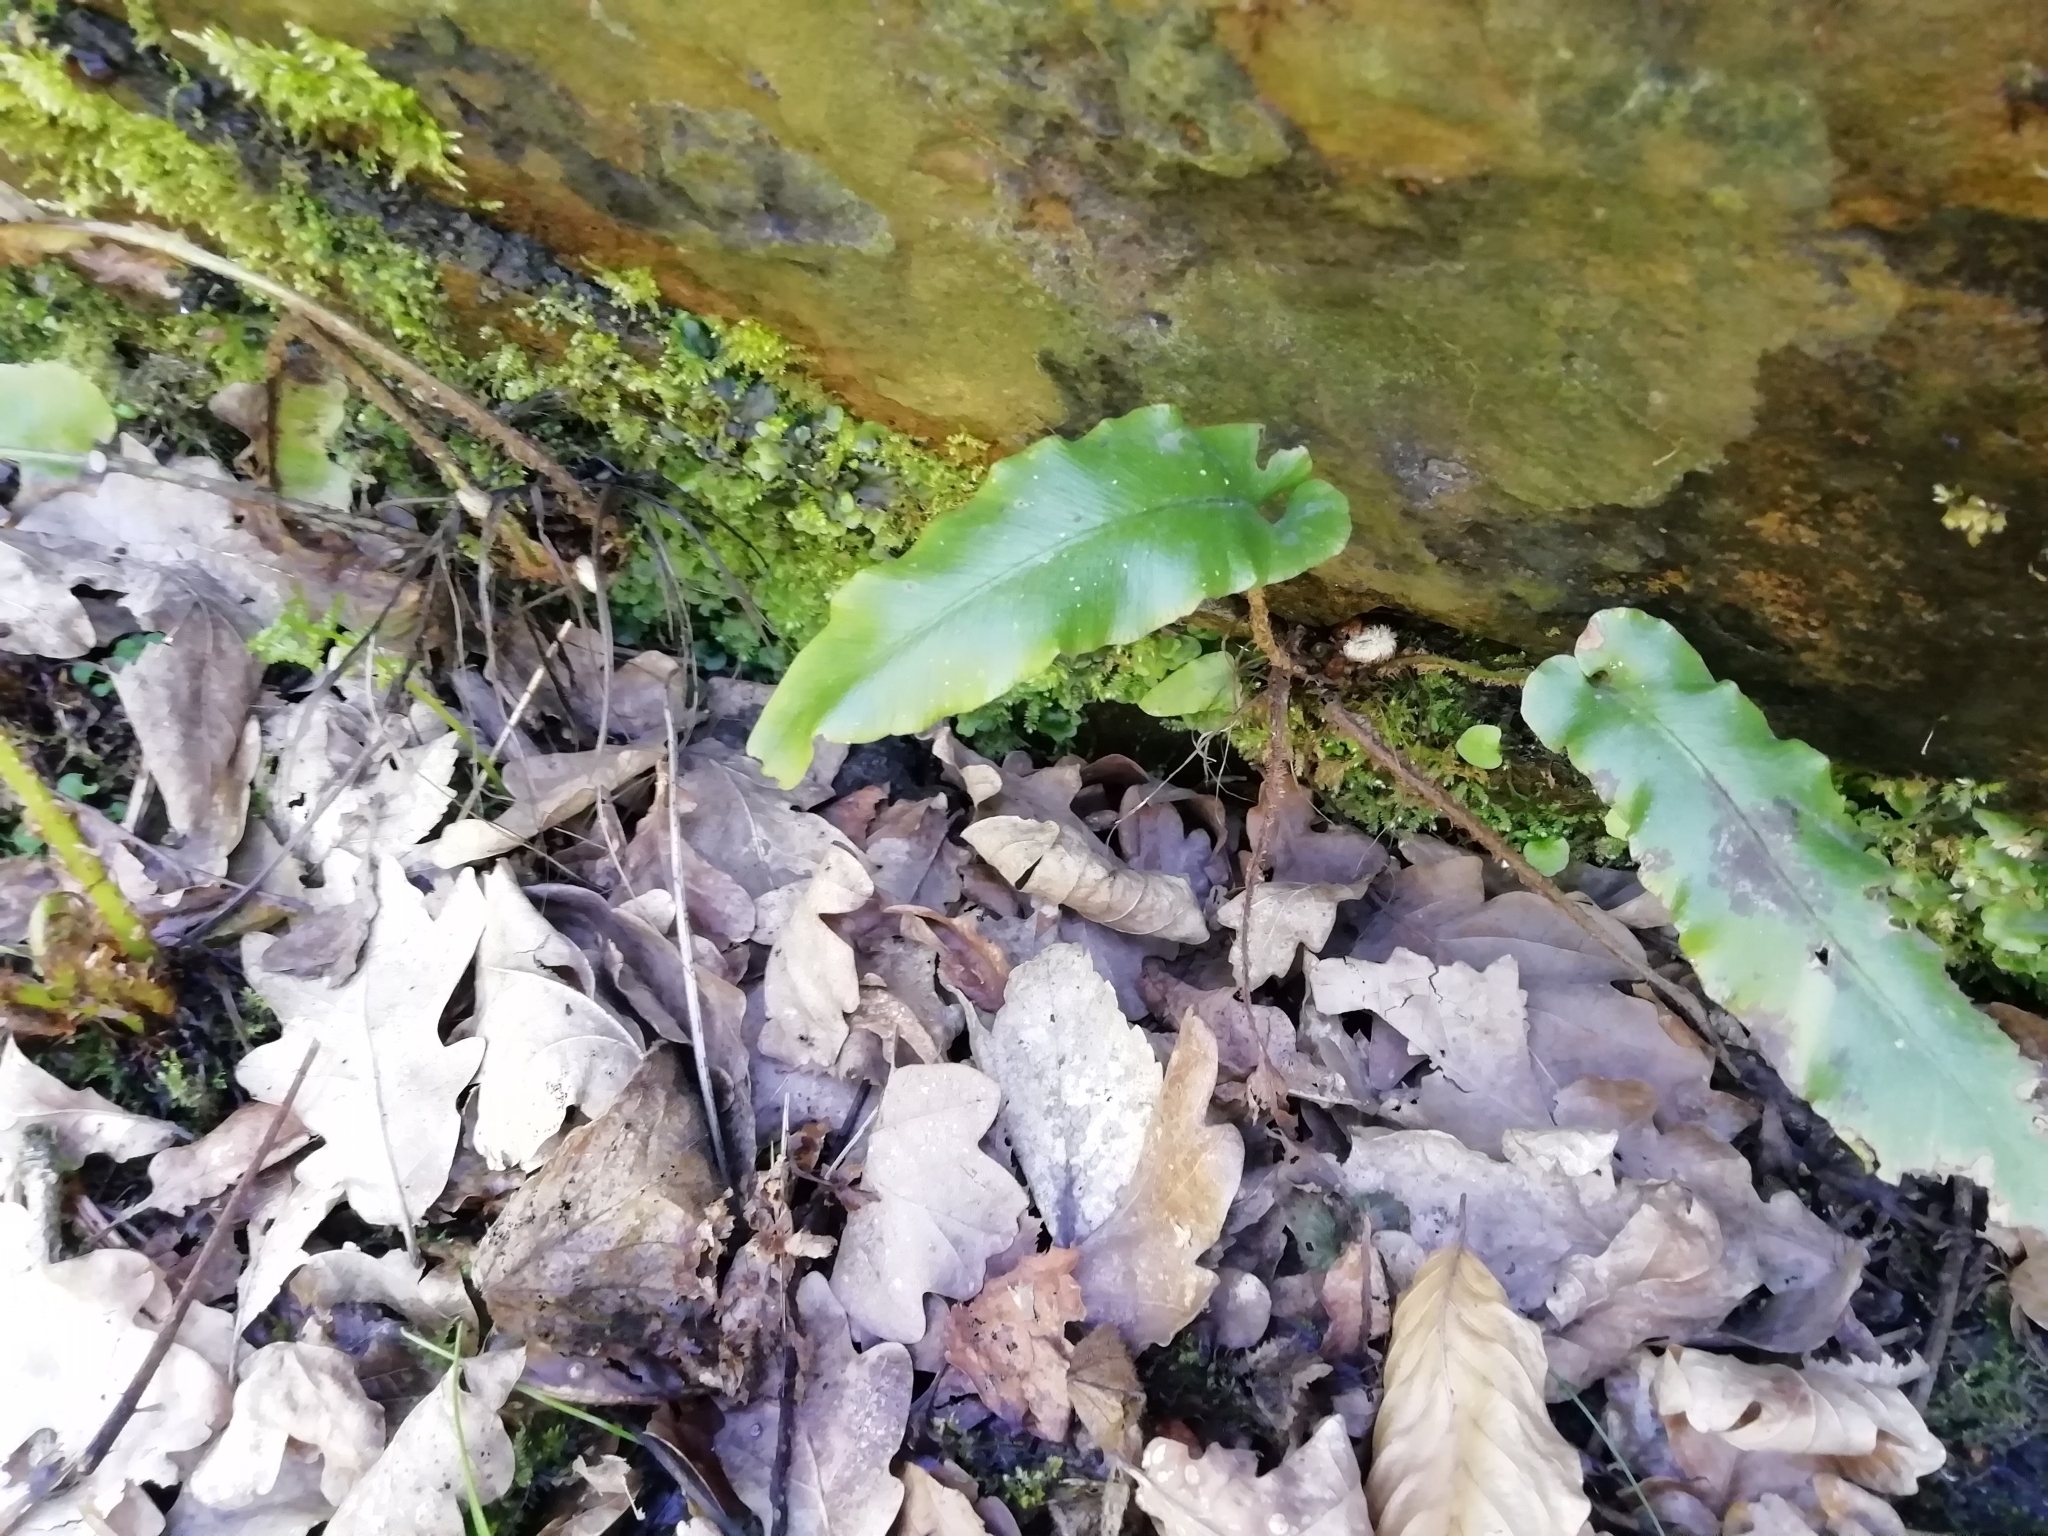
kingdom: Plantae
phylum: Tracheophyta
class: Polypodiopsida
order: Polypodiales
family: Aspleniaceae
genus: Asplenium
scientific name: Asplenium scolopendrium
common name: Hart's-tongue fern
